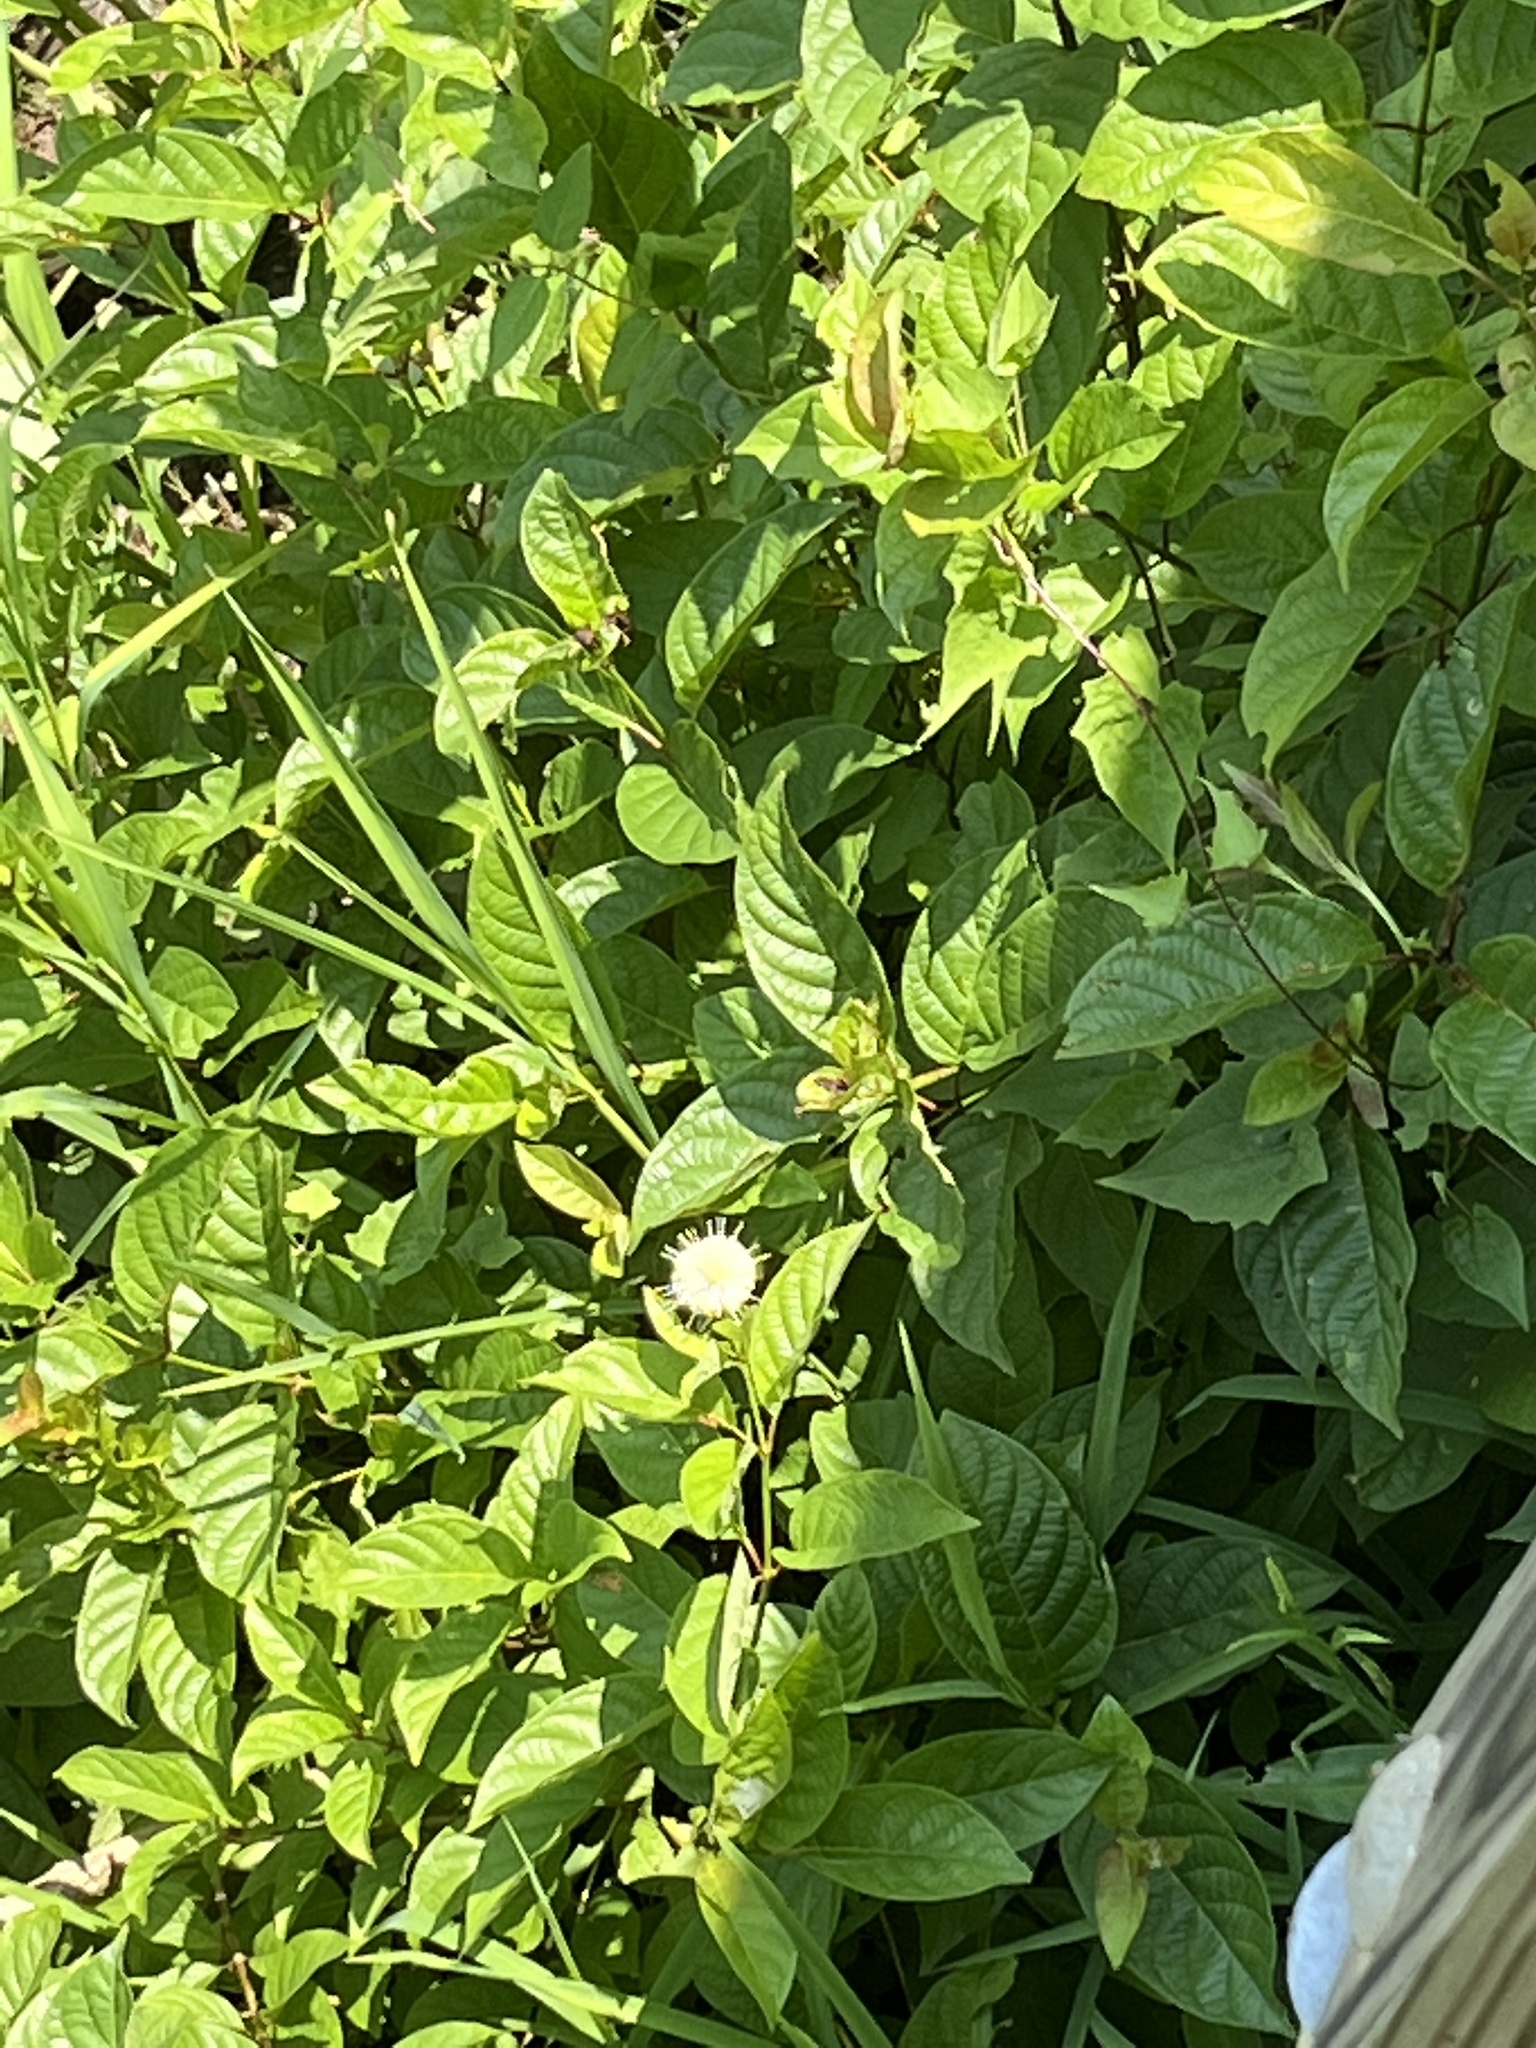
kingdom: Plantae
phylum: Tracheophyta
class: Magnoliopsida
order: Gentianales
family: Rubiaceae
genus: Cephalanthus
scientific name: Cephalanthus occidentalis
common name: Button-willow
